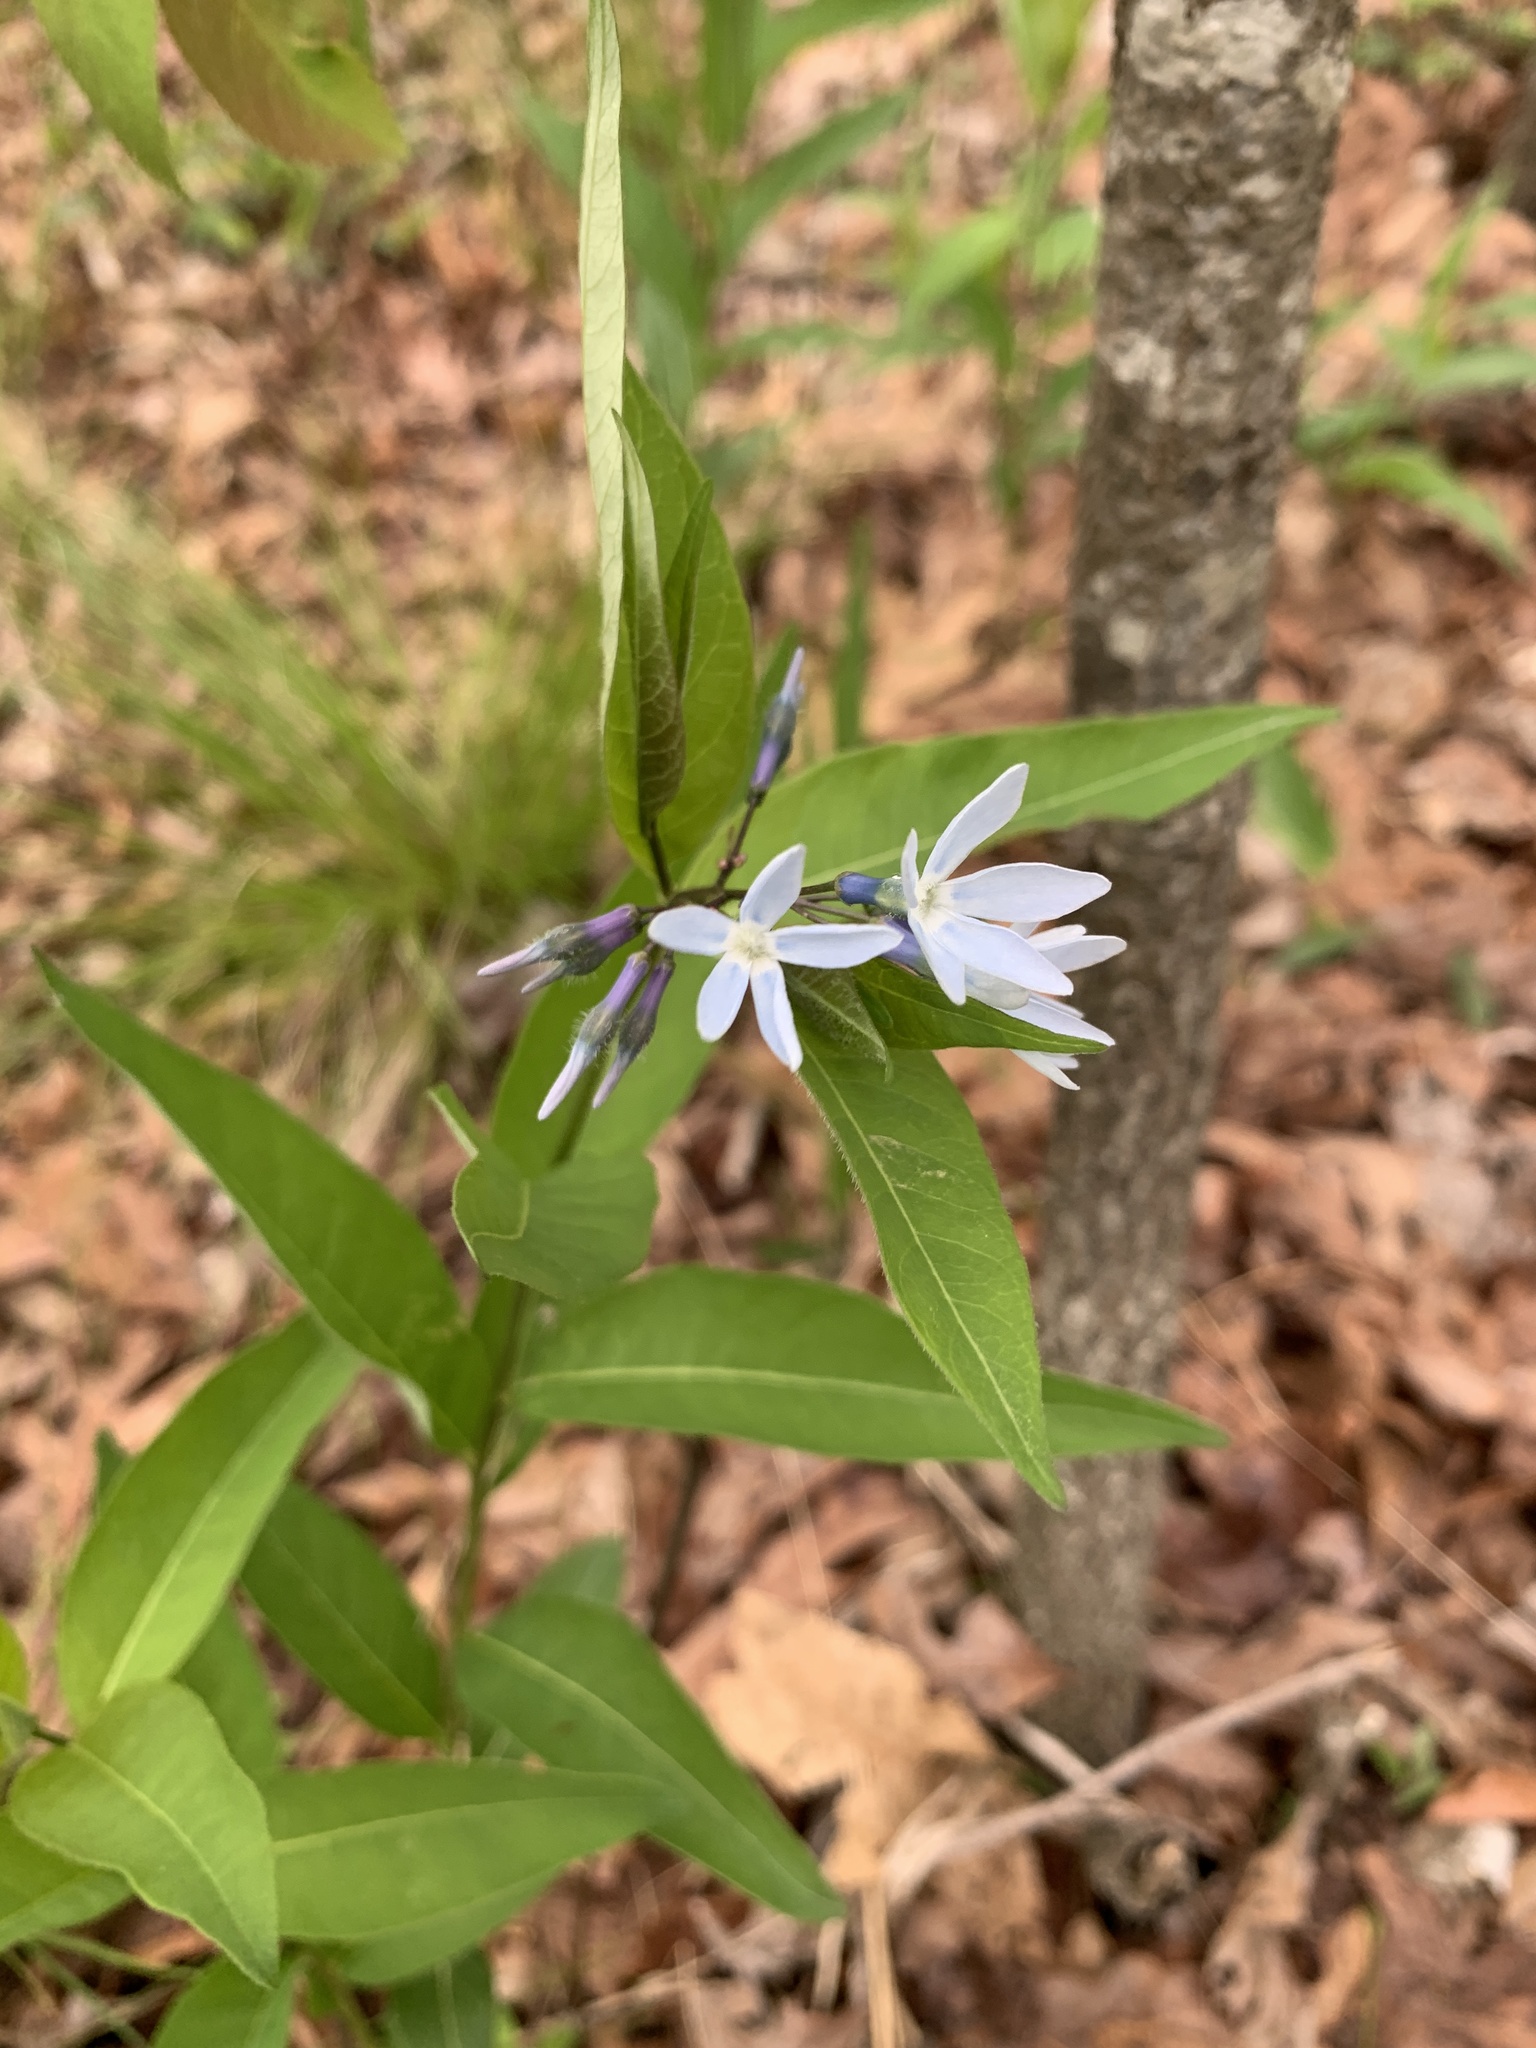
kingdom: Plantae
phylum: Tracheophyta
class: Magnoliopsida
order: Gentianales
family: Apocynaceae
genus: Amsonia
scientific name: Amsonia tabernaemontana
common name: Texas-star
